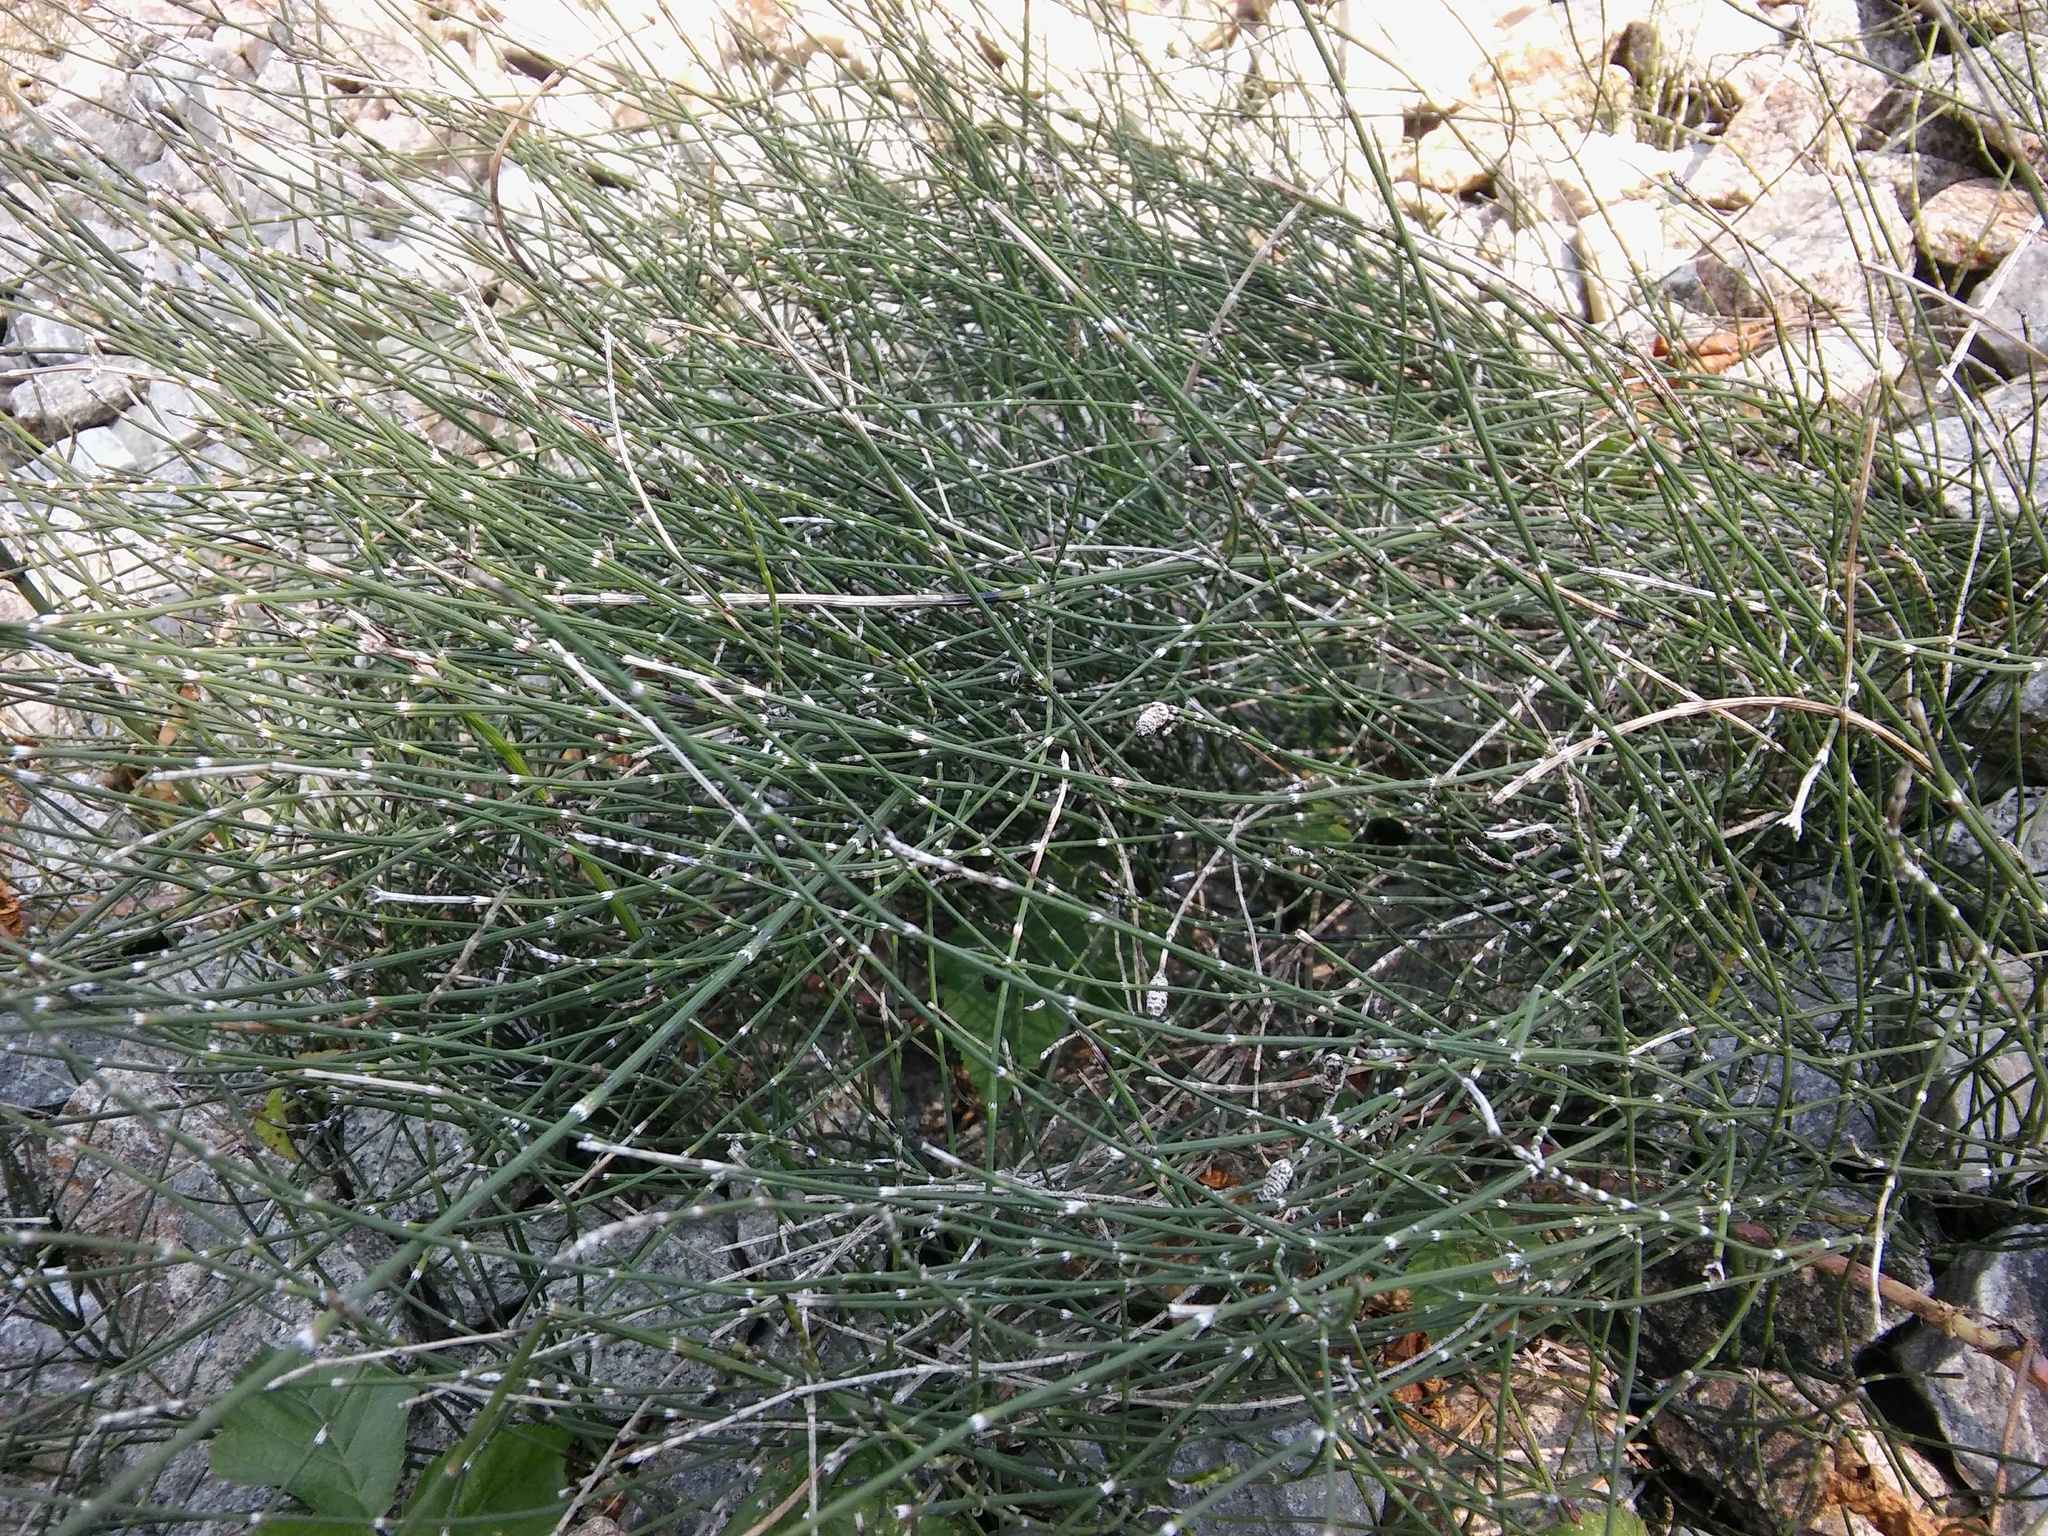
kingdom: Plantae
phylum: Tracheophyta
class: Polypodiopsida
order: Equisetales
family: Equisetaceae
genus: Equisetum
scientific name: Equisetum ramosissimum
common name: Branched horsetail
